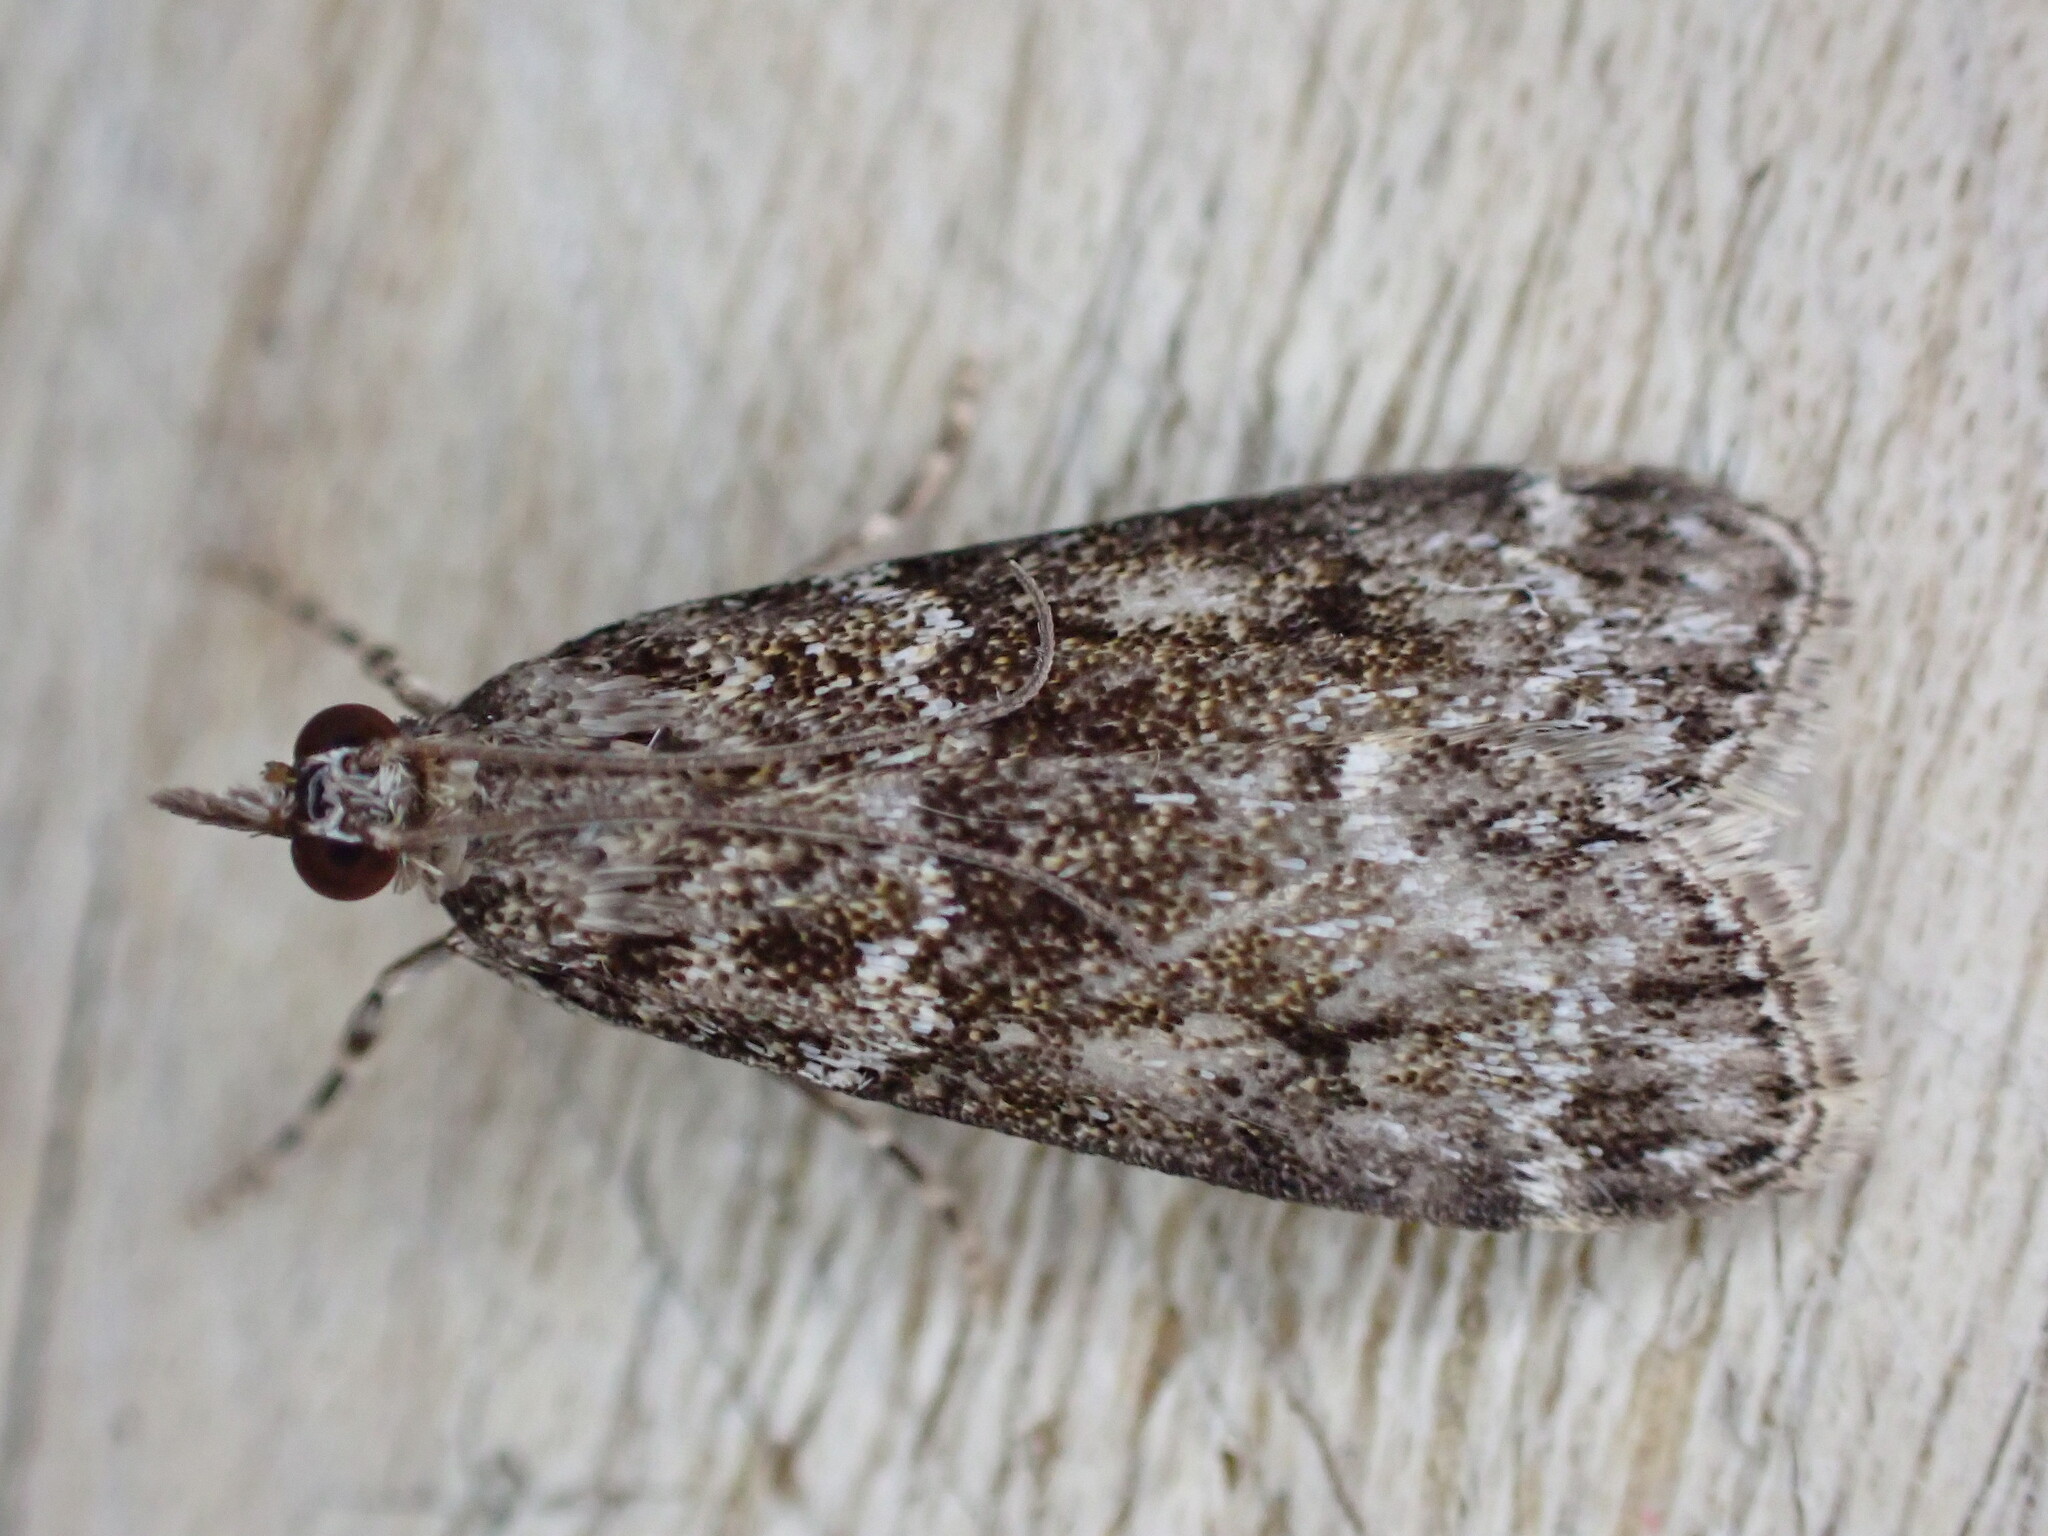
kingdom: Animalia
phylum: Arthropoda
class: Insecta
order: Lepidoptera
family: Crambidae
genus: Eudonia
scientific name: Eudonia mercurella
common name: Small grey
